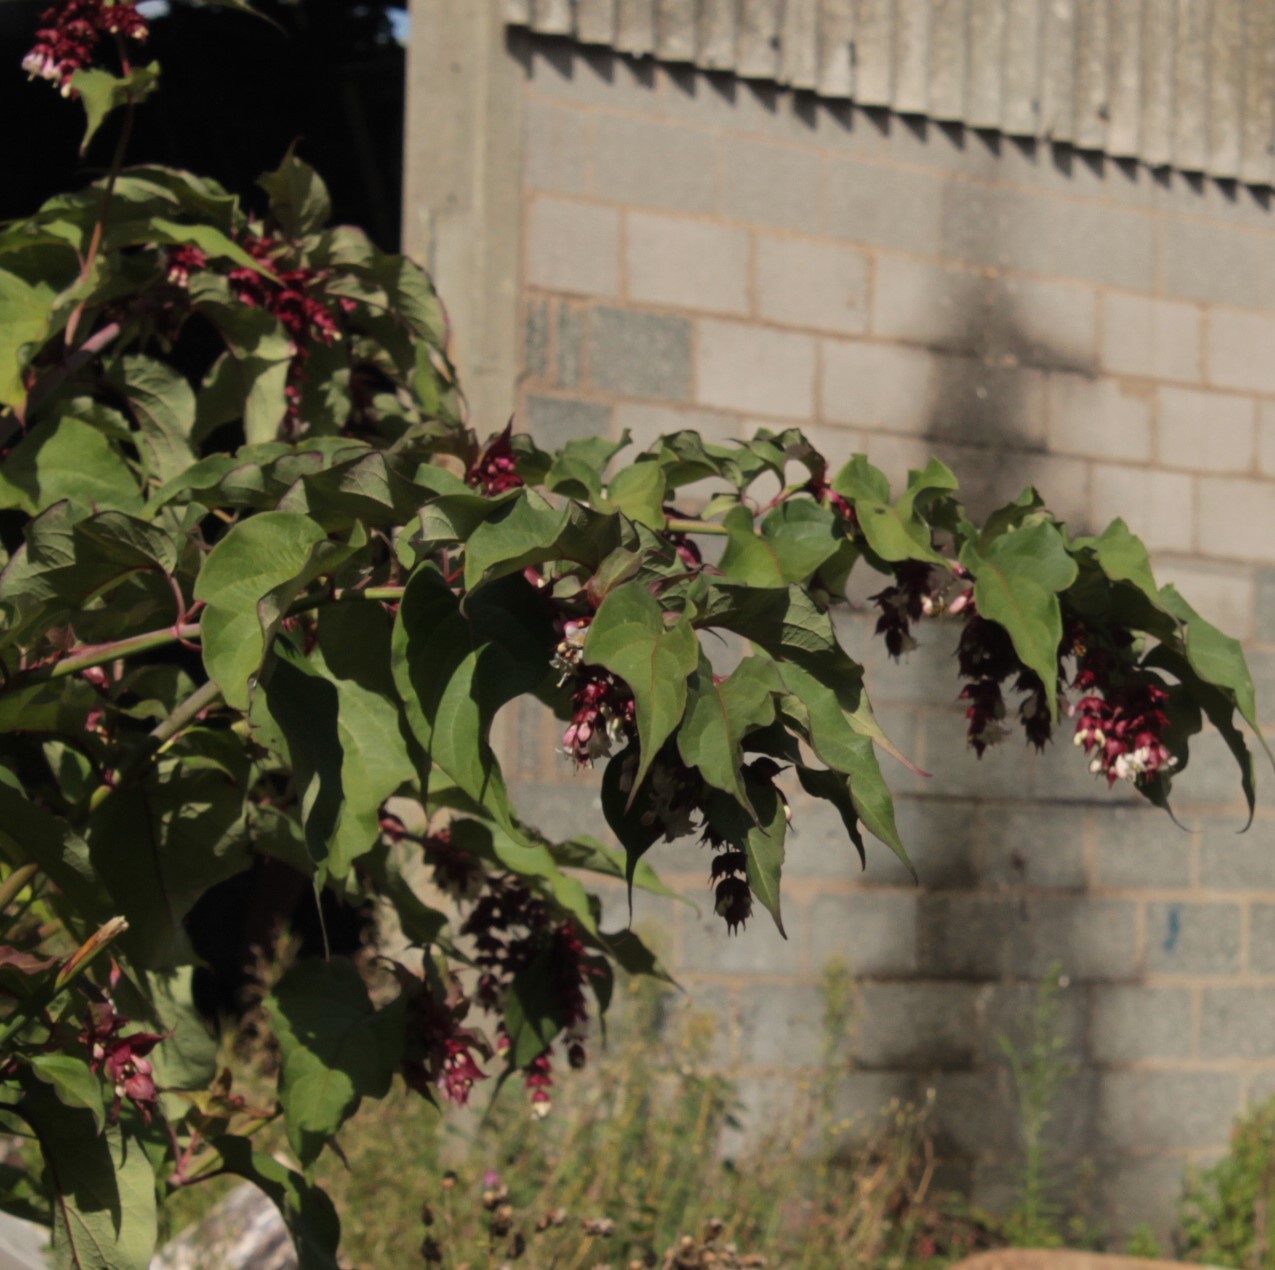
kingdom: Plantae
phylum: Tracheophyta
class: Magnoliopsida
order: Dipsacales
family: Caprifoliaceae
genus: Leycesteria
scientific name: Leycesteria formosa
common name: Himalayan honeysuckle
